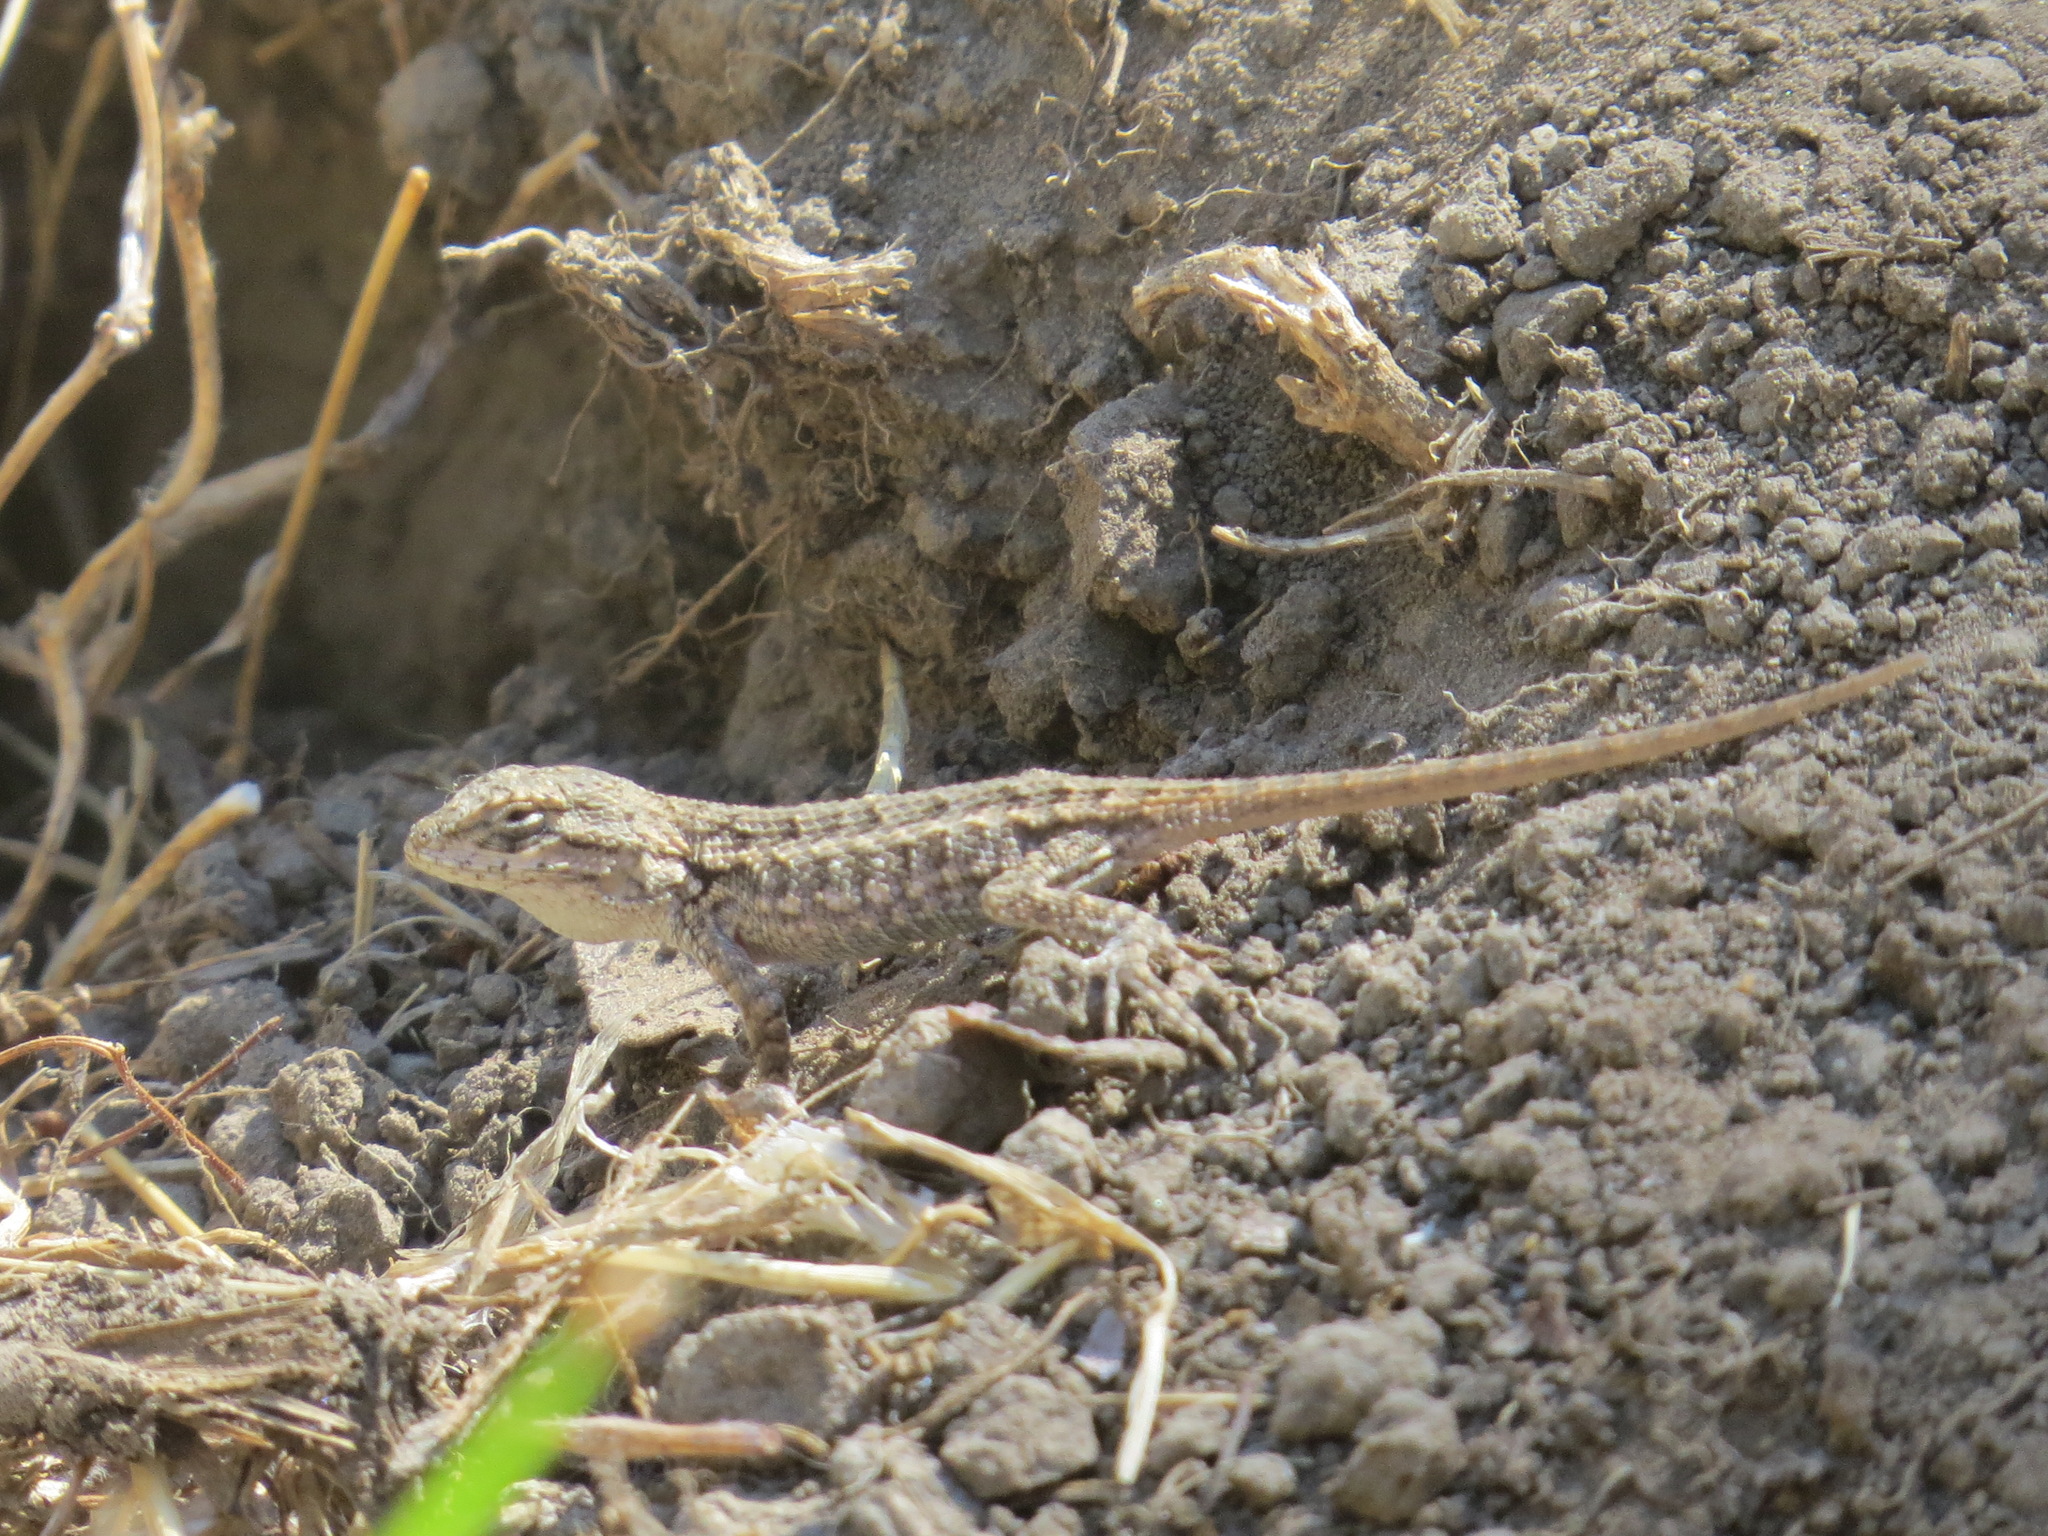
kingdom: Animalia
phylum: Chordata
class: Squamata
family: Phrynosomatidae
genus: Sceloporus
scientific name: Sceloporus occidentalis
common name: Western fence lizard
